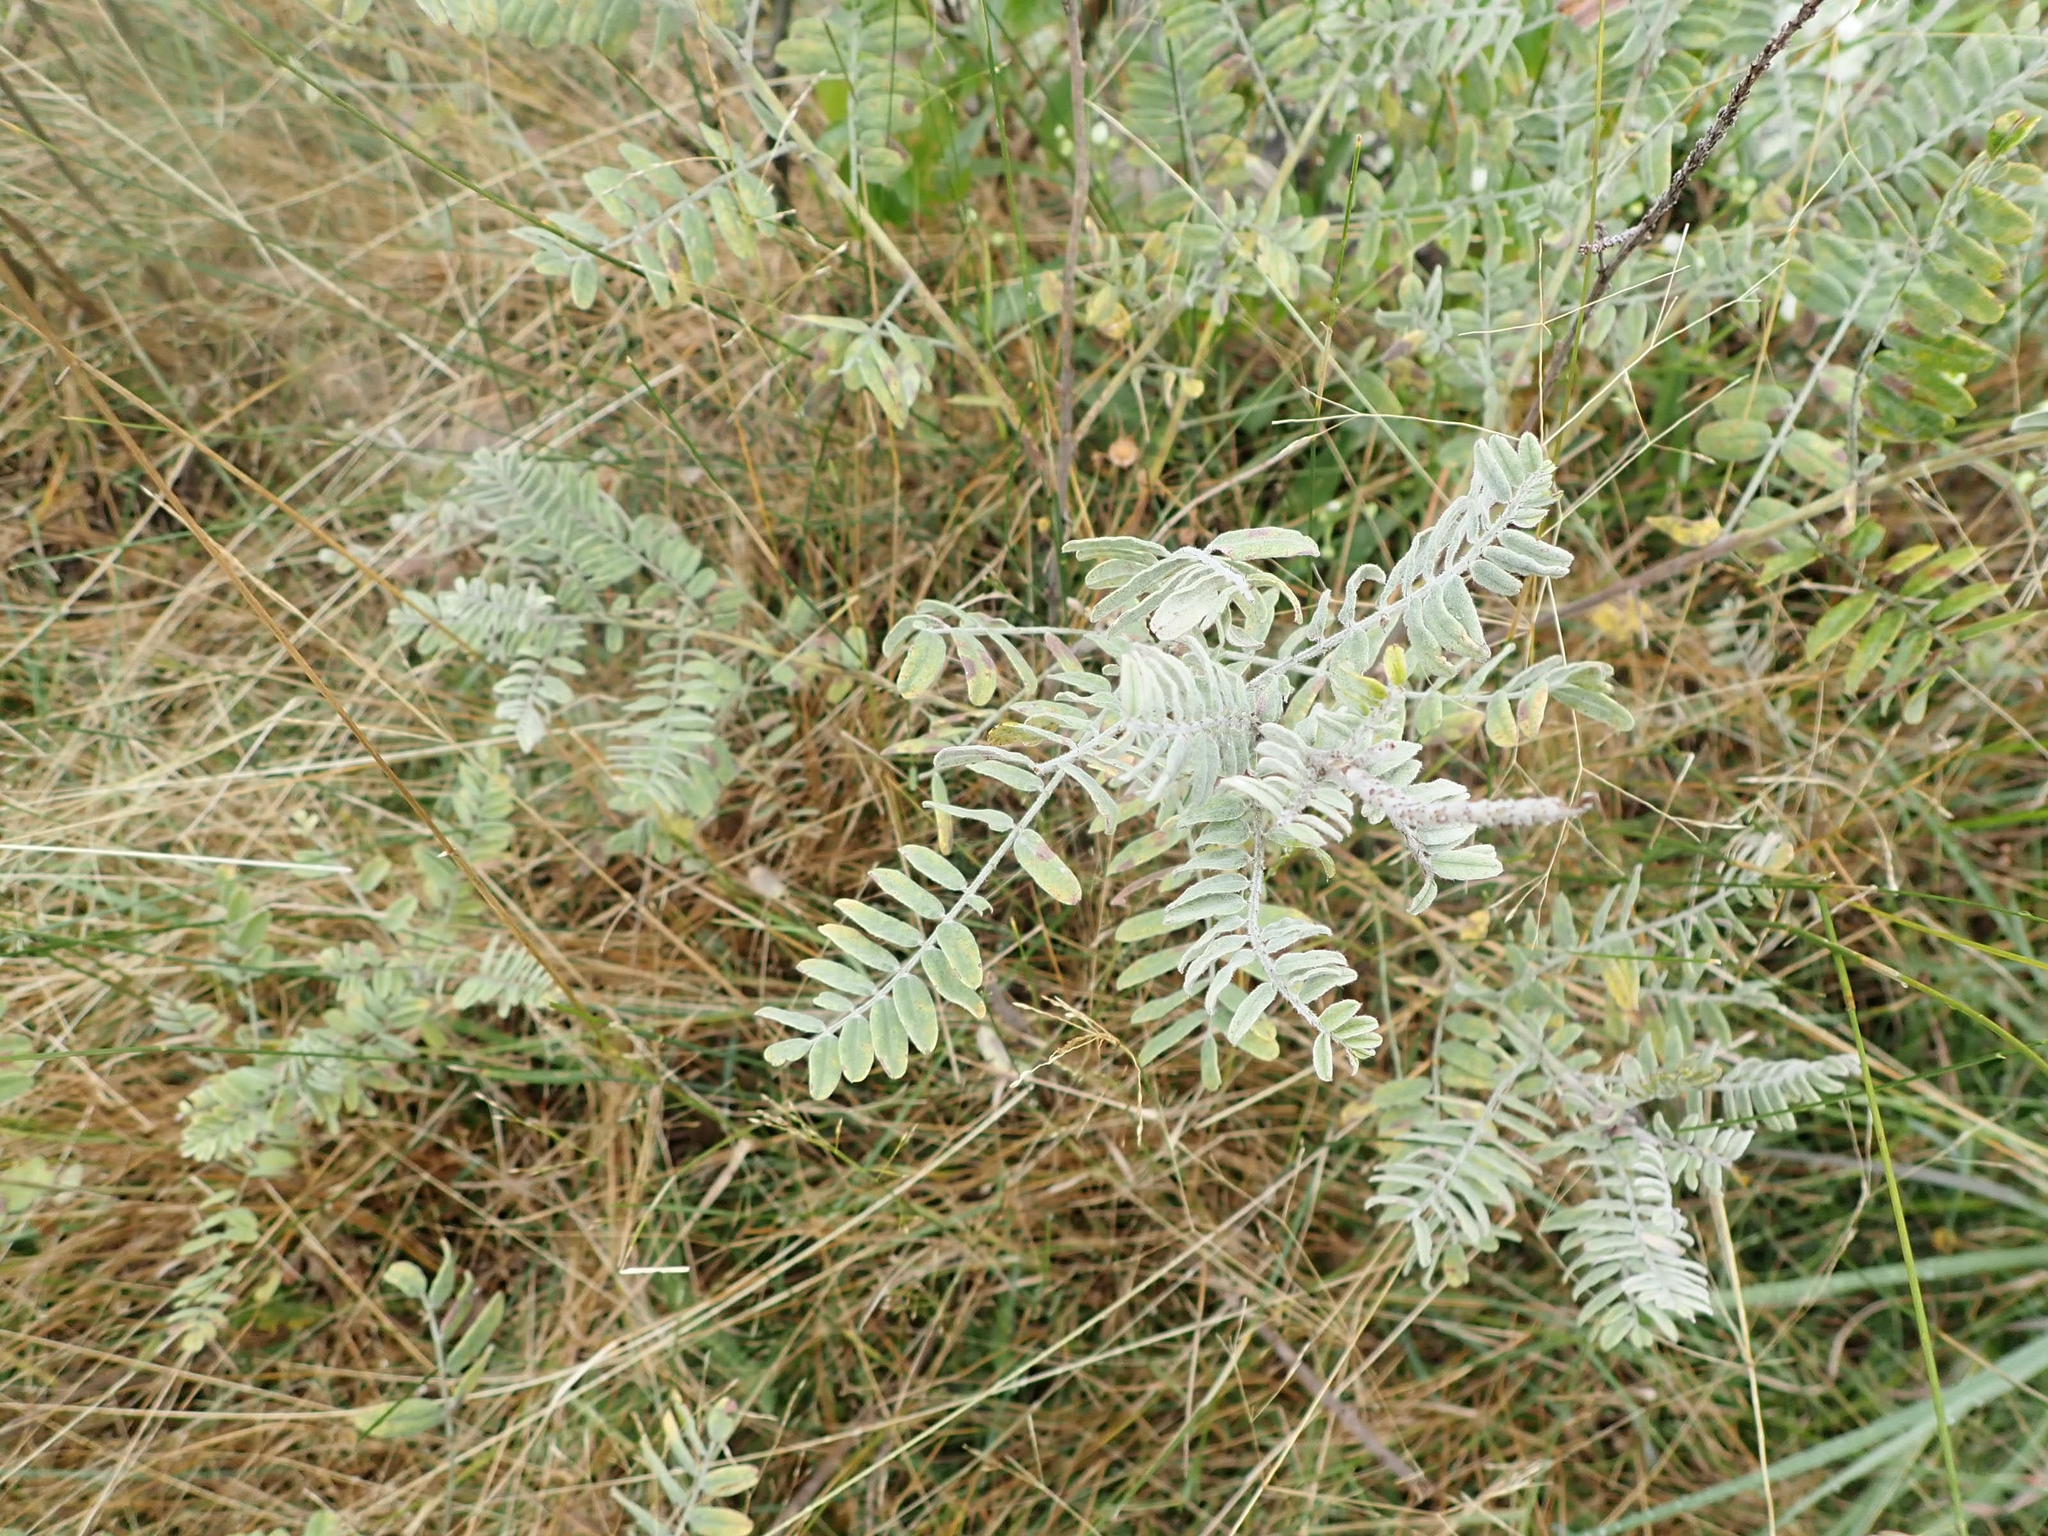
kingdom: Plantae
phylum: Tracheophyta
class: Magnoliopsida
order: Fabales
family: Fabaceae
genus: Amorpha
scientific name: Amorpha canescens
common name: Leadplant
